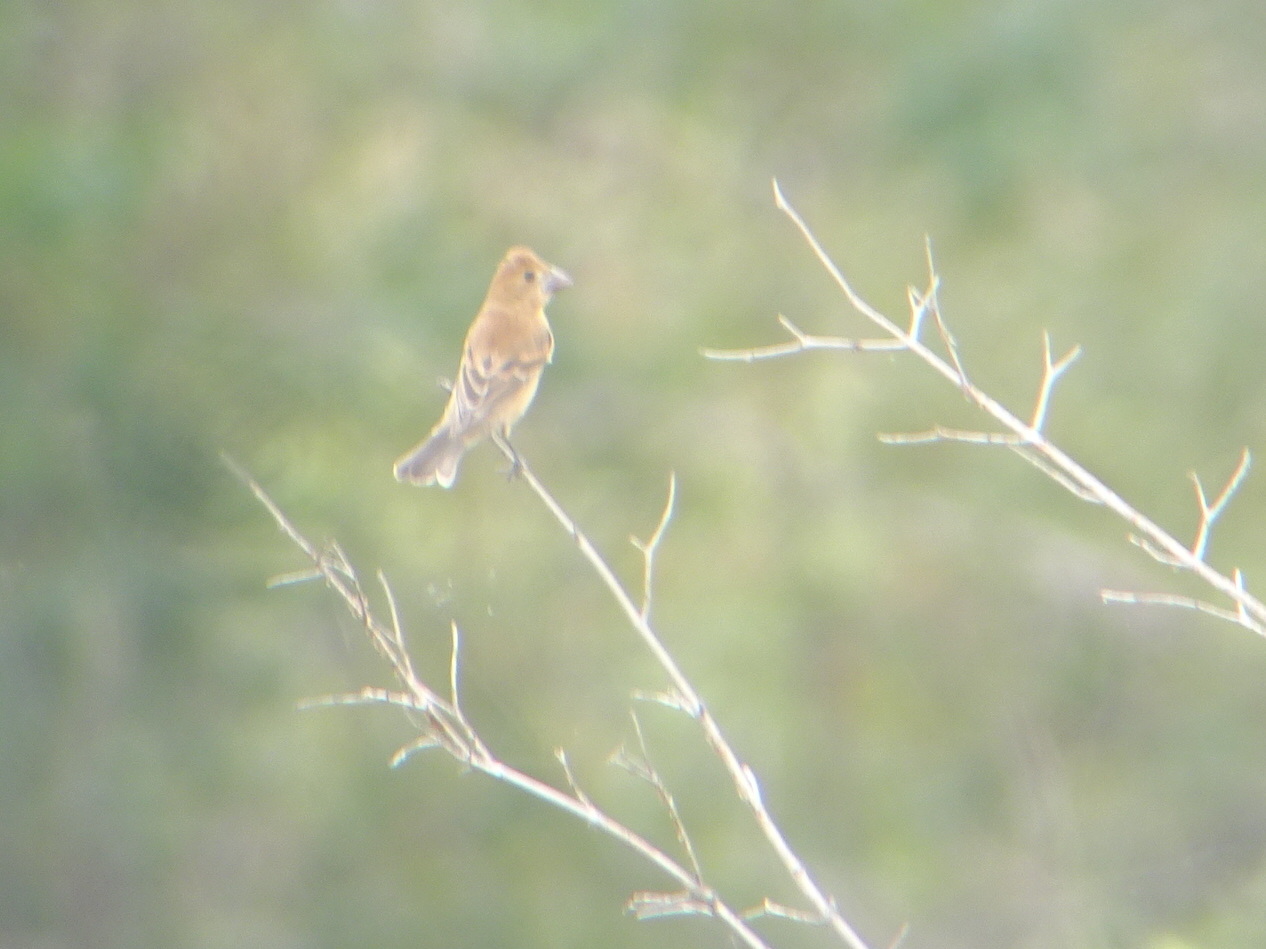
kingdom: Animalia
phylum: Chordata
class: Aves
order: Passeriformes
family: Cardinalidae
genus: Passerina
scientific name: Passerina caerulea
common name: Blue grosbeak
